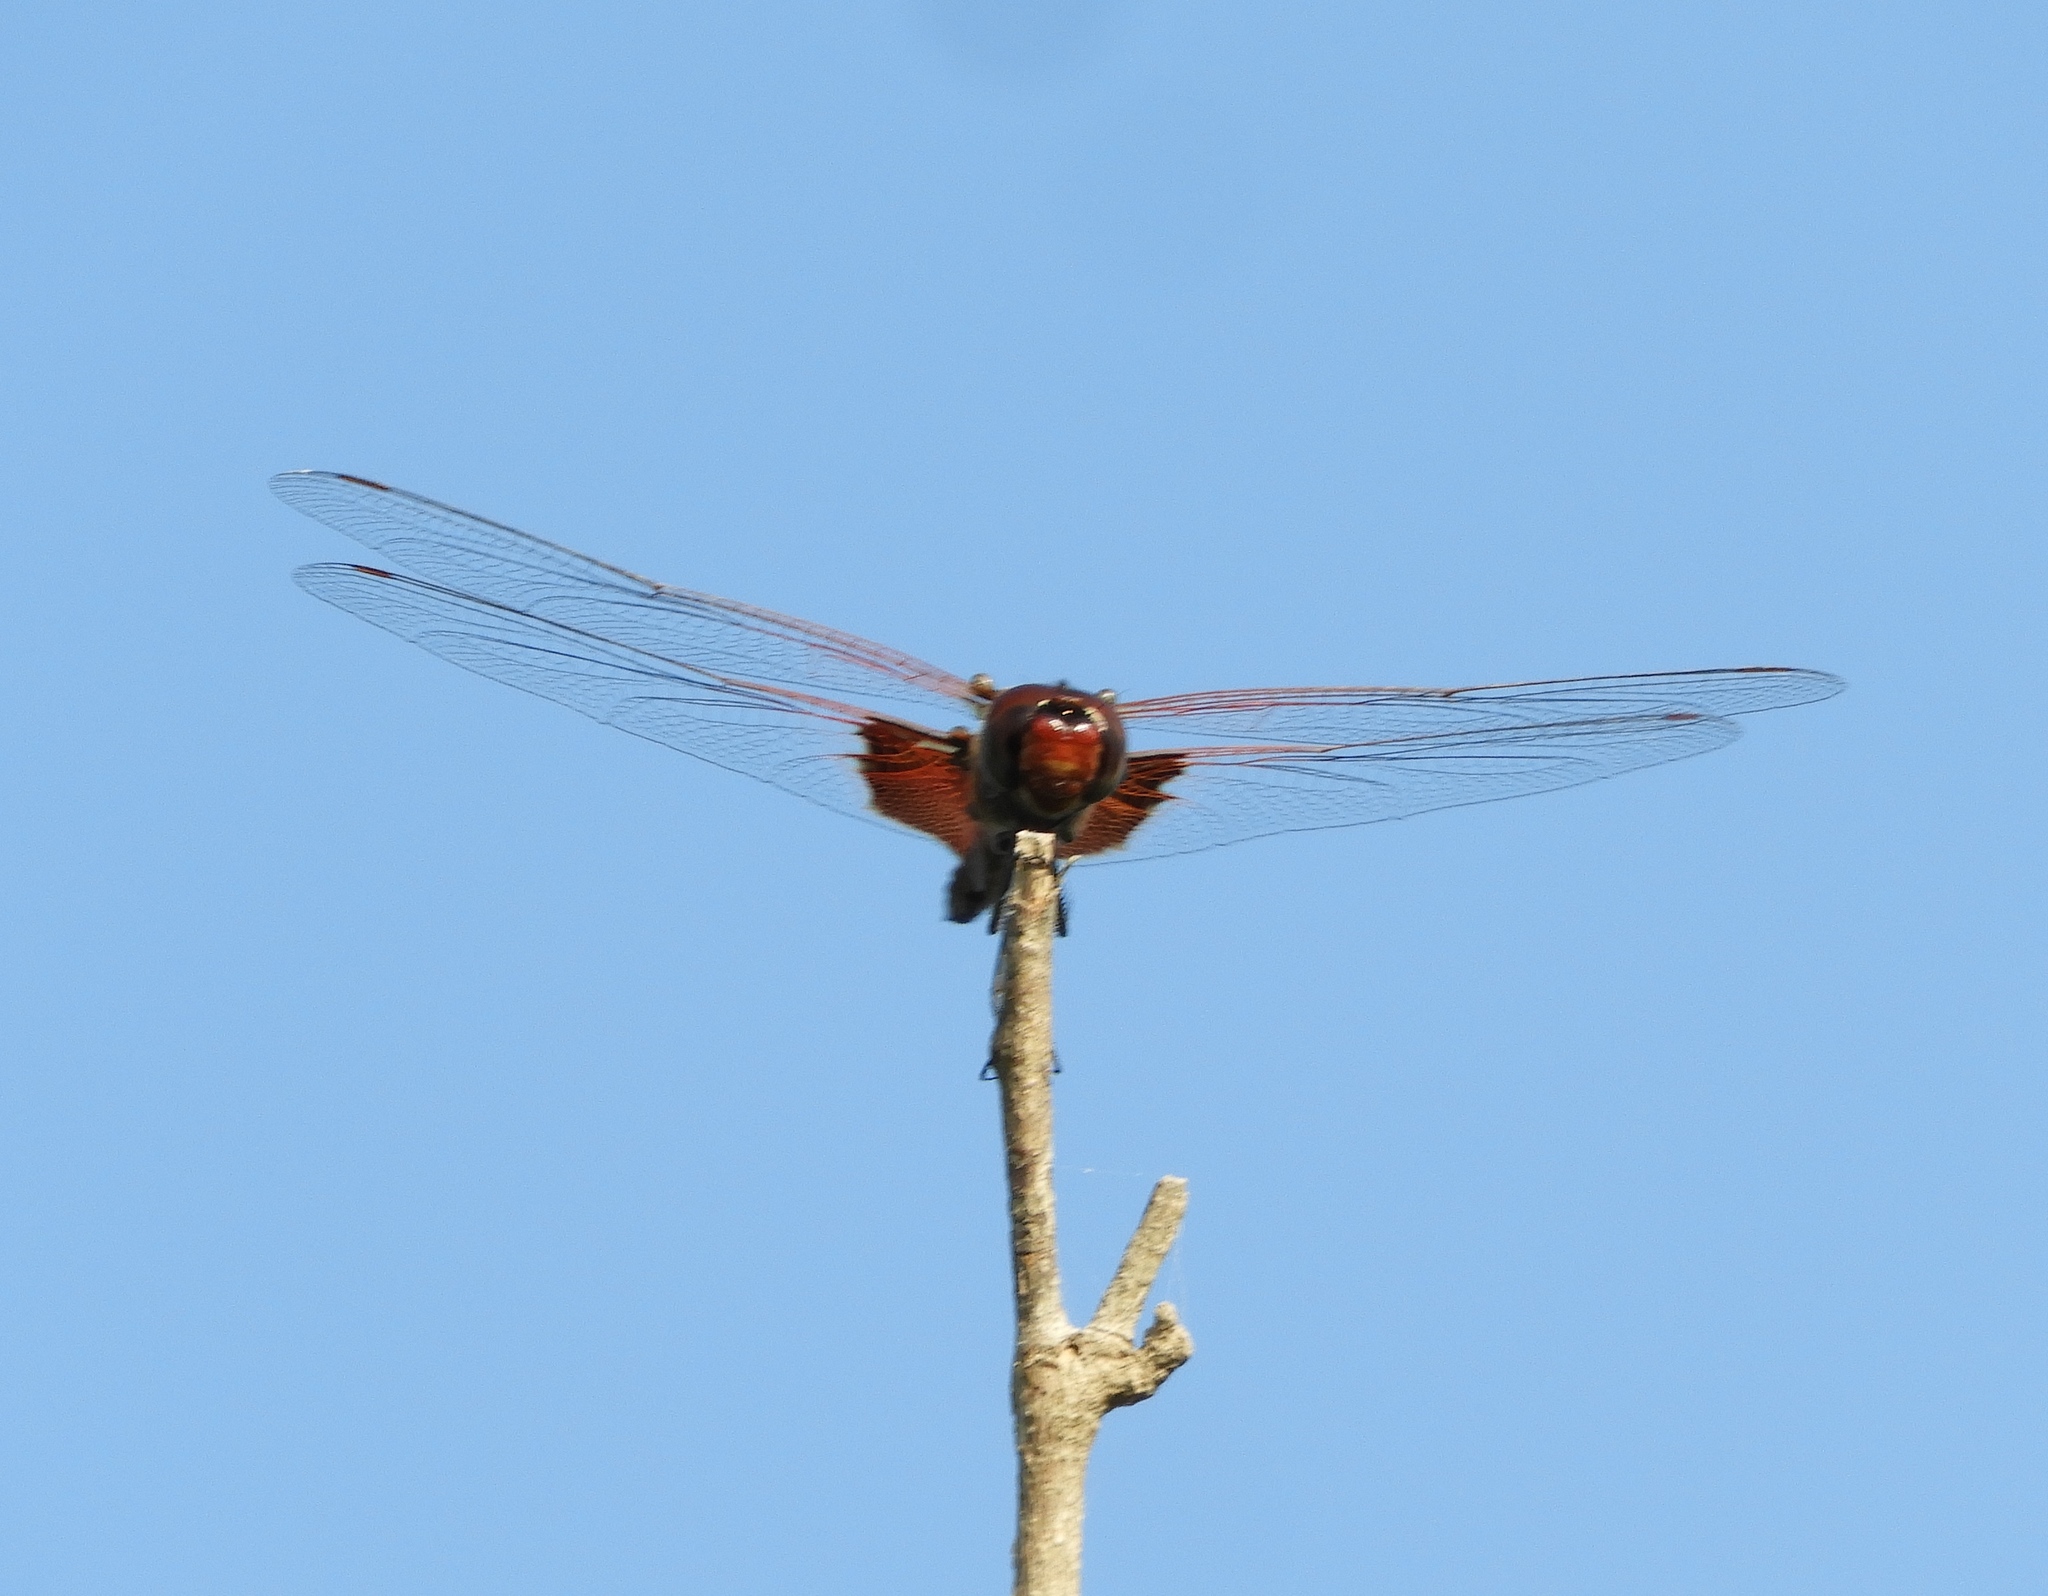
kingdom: Animalia
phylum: Arthropoda
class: Insecta
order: Odonata
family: Libellulidae
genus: Tramea
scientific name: Tramea onusta
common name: Red saddlebags
